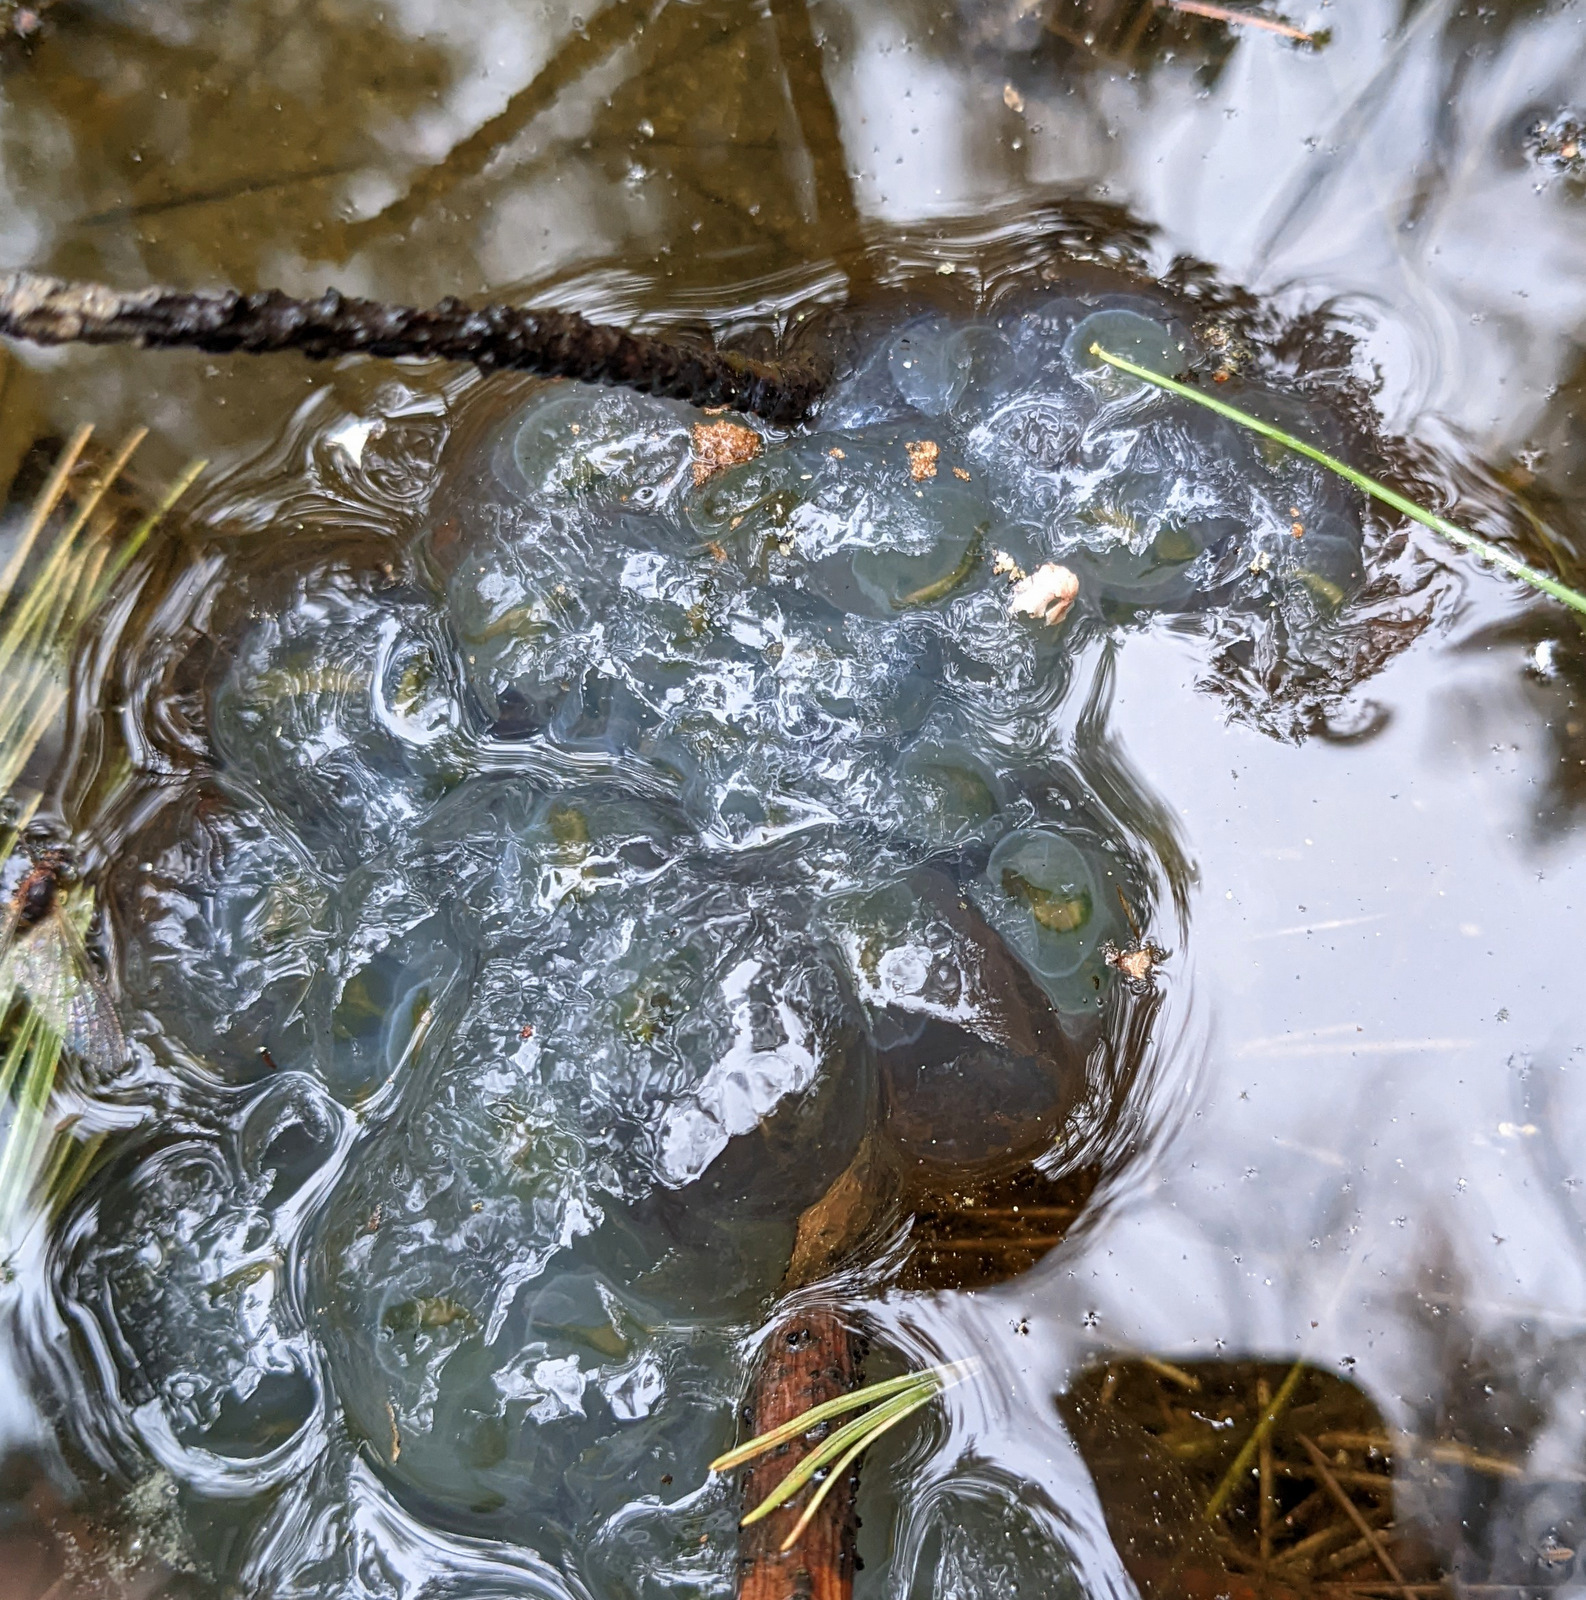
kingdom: Animalia
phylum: Chordata
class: Amphibia
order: Caudata
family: Ambystomatidae
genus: Ambystoma
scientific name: Ambystoma maculatum
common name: Spotted salamander
